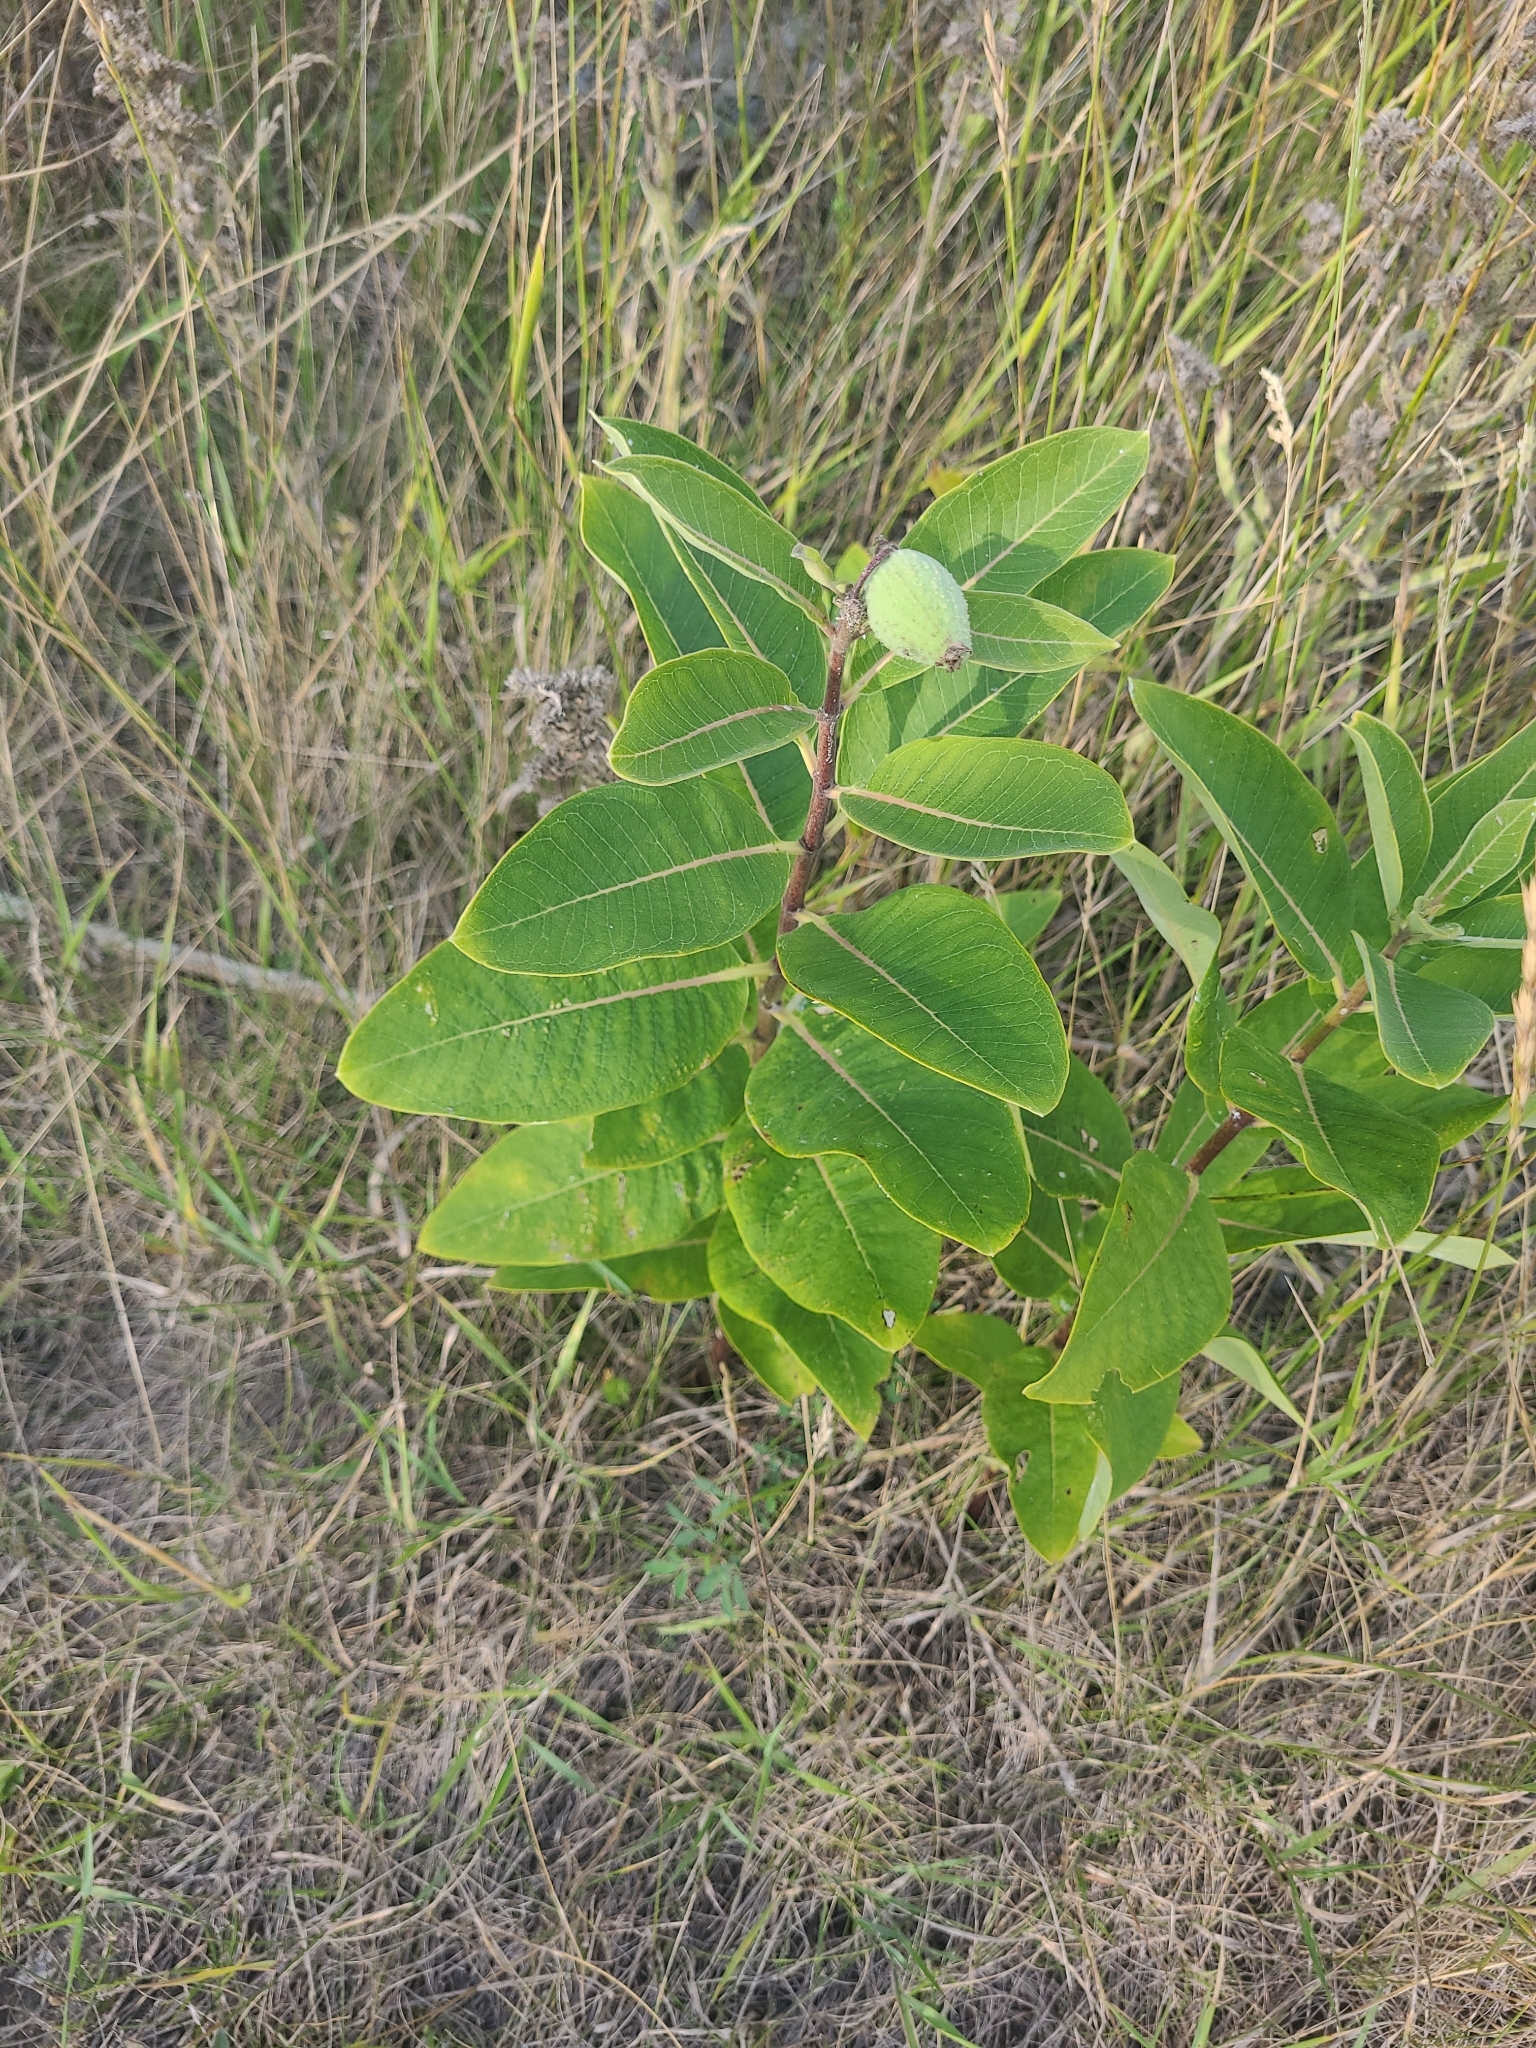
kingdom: Plantae
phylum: Tracheophyta
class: Magnoliopsida
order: Gentianales
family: Apocynaceae
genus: Asclepias
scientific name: Asclepias syriaca
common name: Common milkweed
